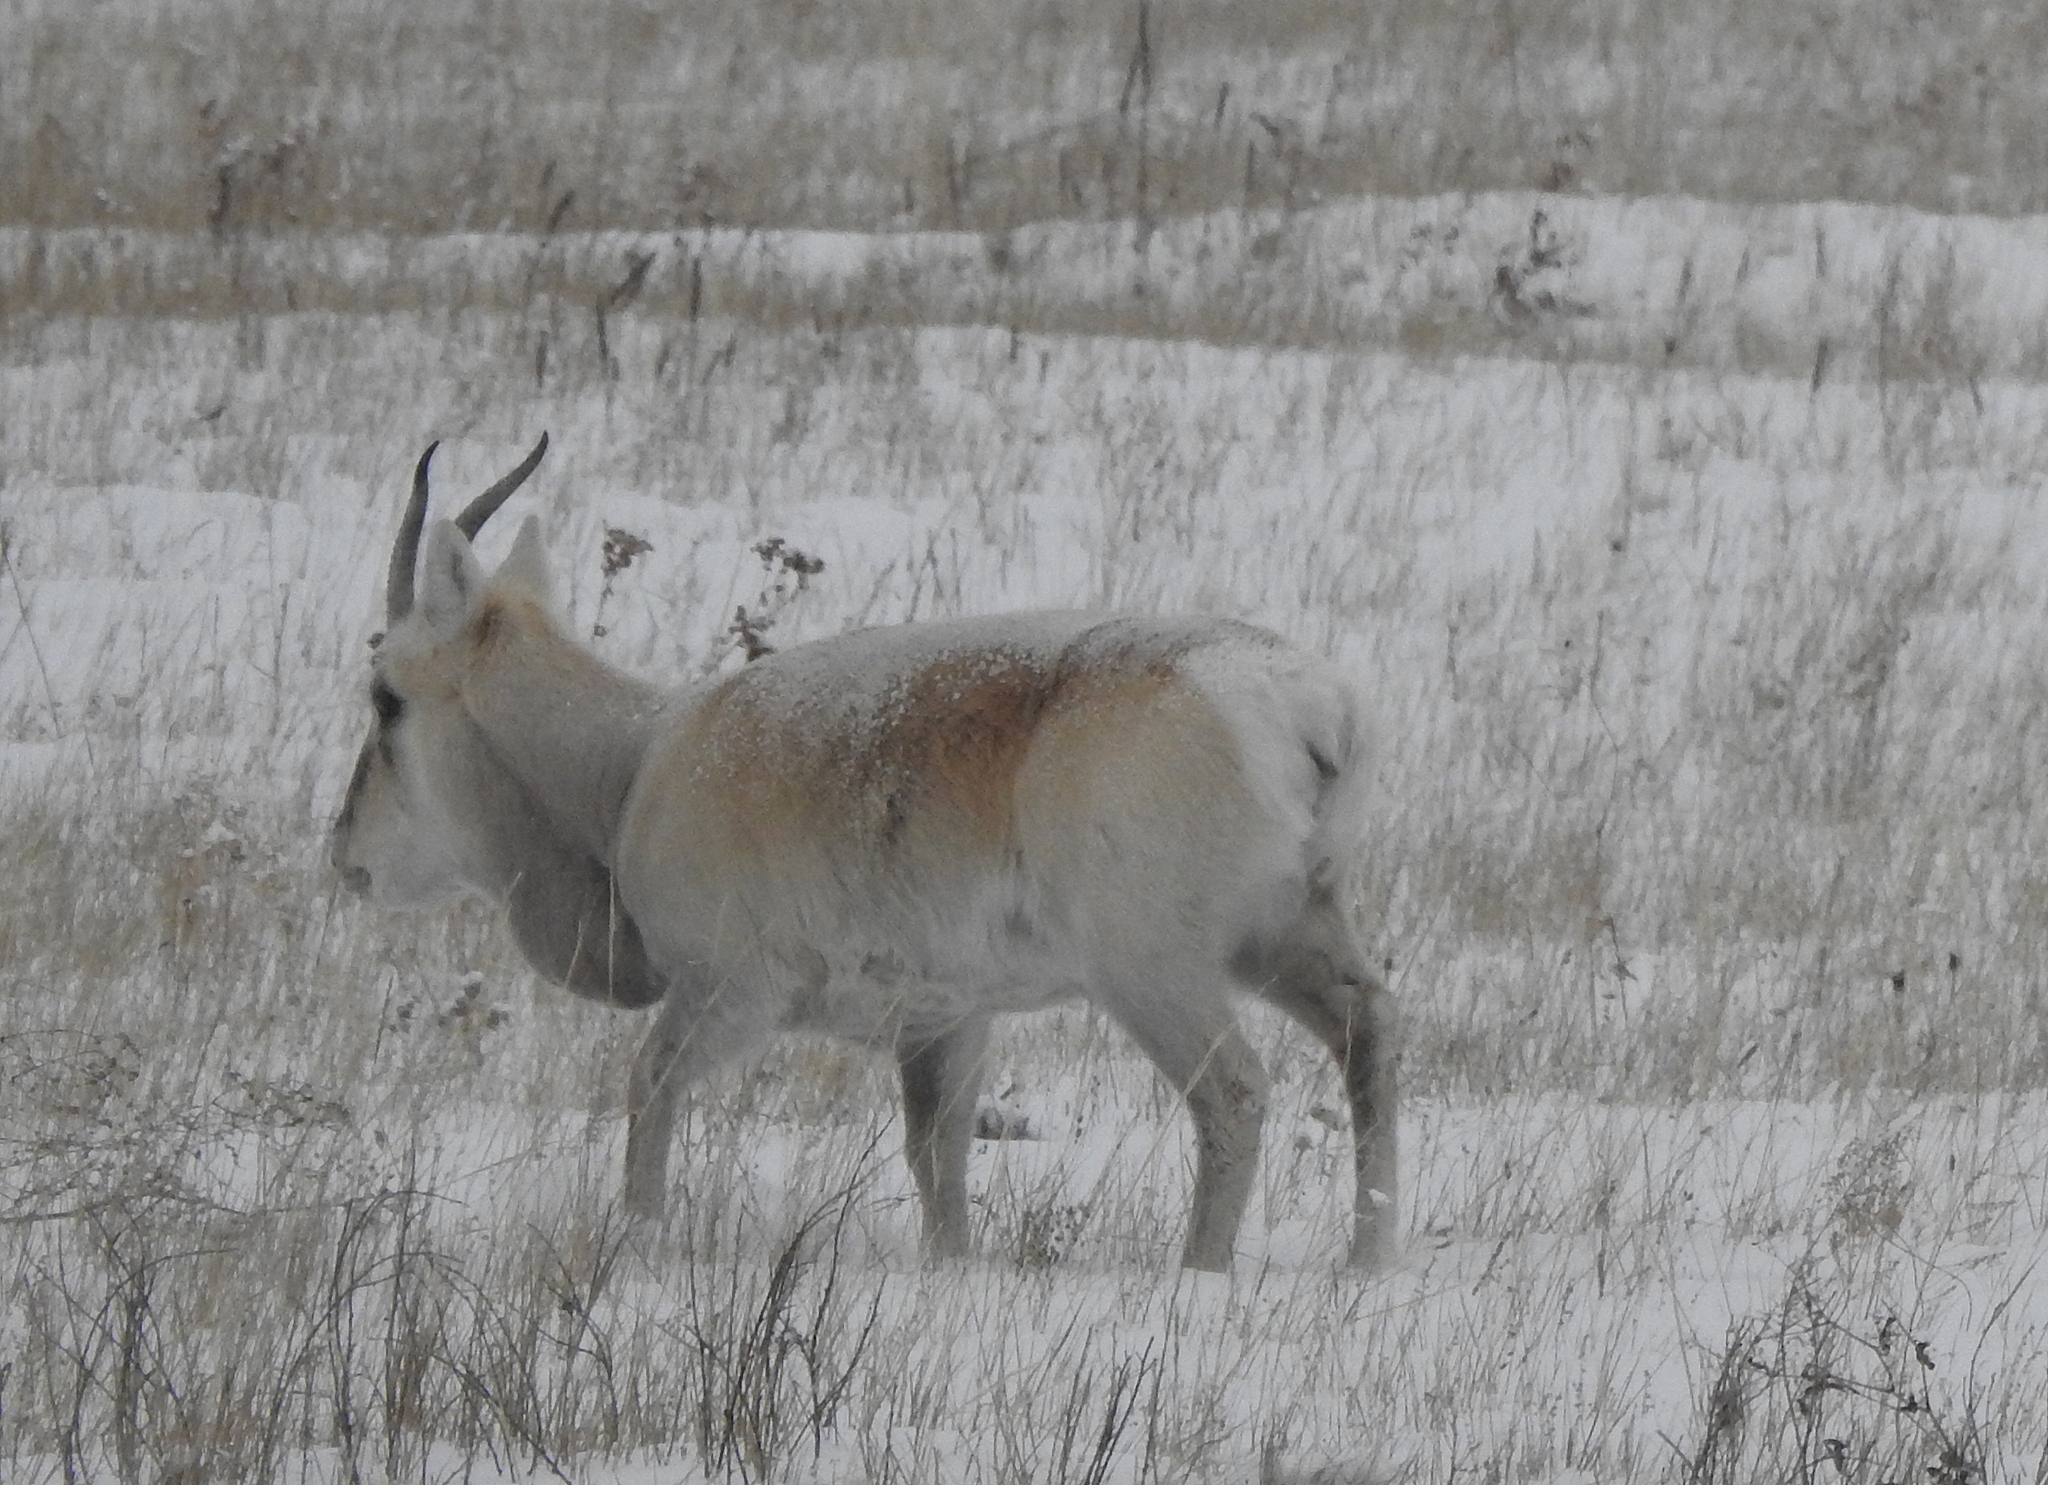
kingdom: Animalia
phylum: Chordata
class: Mammalia
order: Artiodactyla
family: Bovidae
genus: Procapra
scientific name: Procapra gutturosa
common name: Mongolian gazelle
